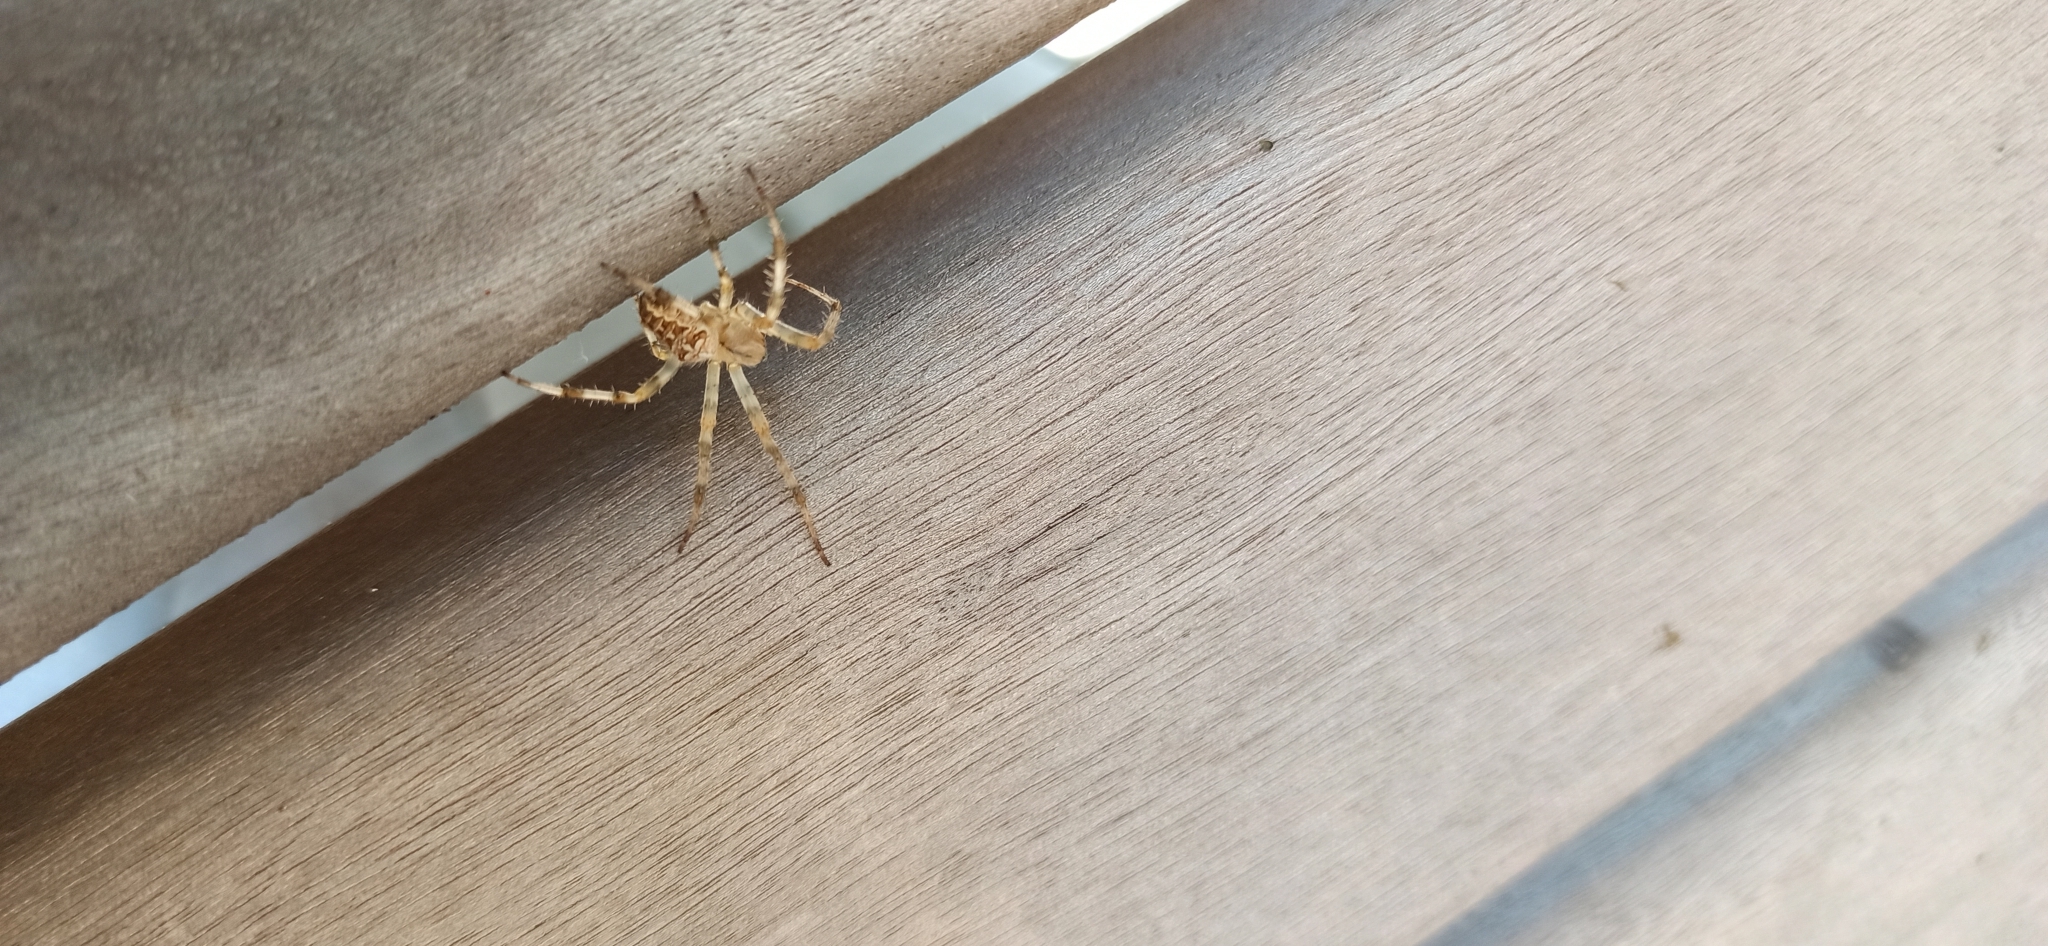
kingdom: Animalia
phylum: Arthropoda
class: Arachnida
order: Araneae
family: Araneidae
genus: Araneus
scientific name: Araneus diadematus
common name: Cross orbweaver
